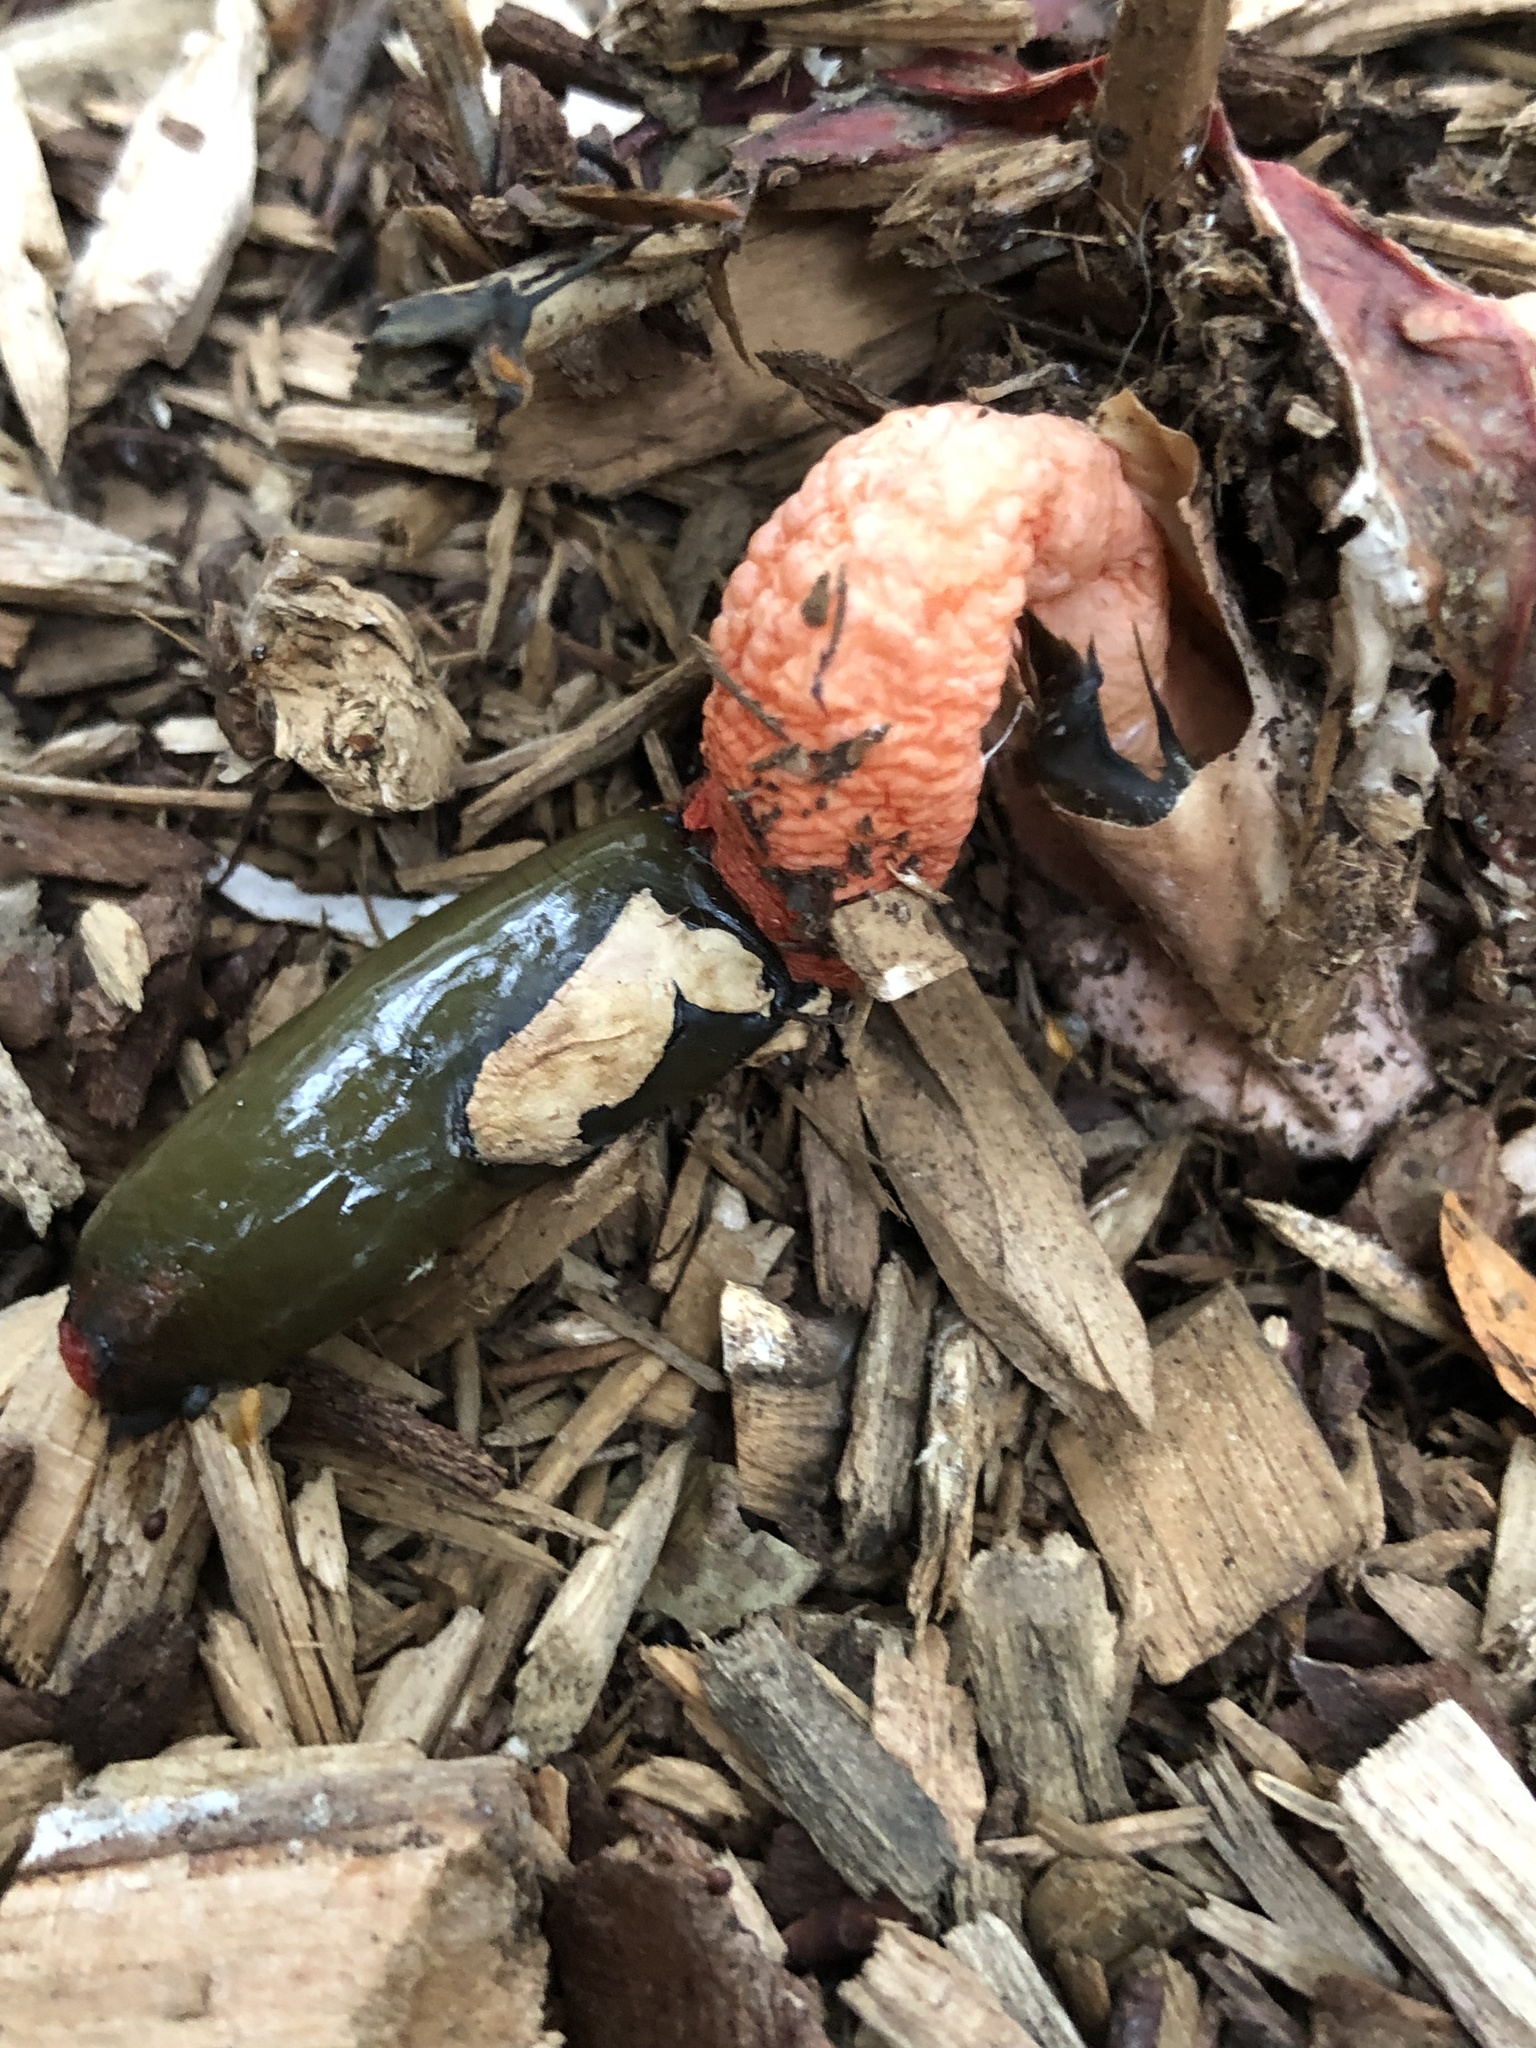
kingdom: Fungi
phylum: Basidiomycota
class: Agaricomycetes
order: Phallales
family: Phallaceae
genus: Mutinus
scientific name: Mutinus elegans
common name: Devil's dipstick
